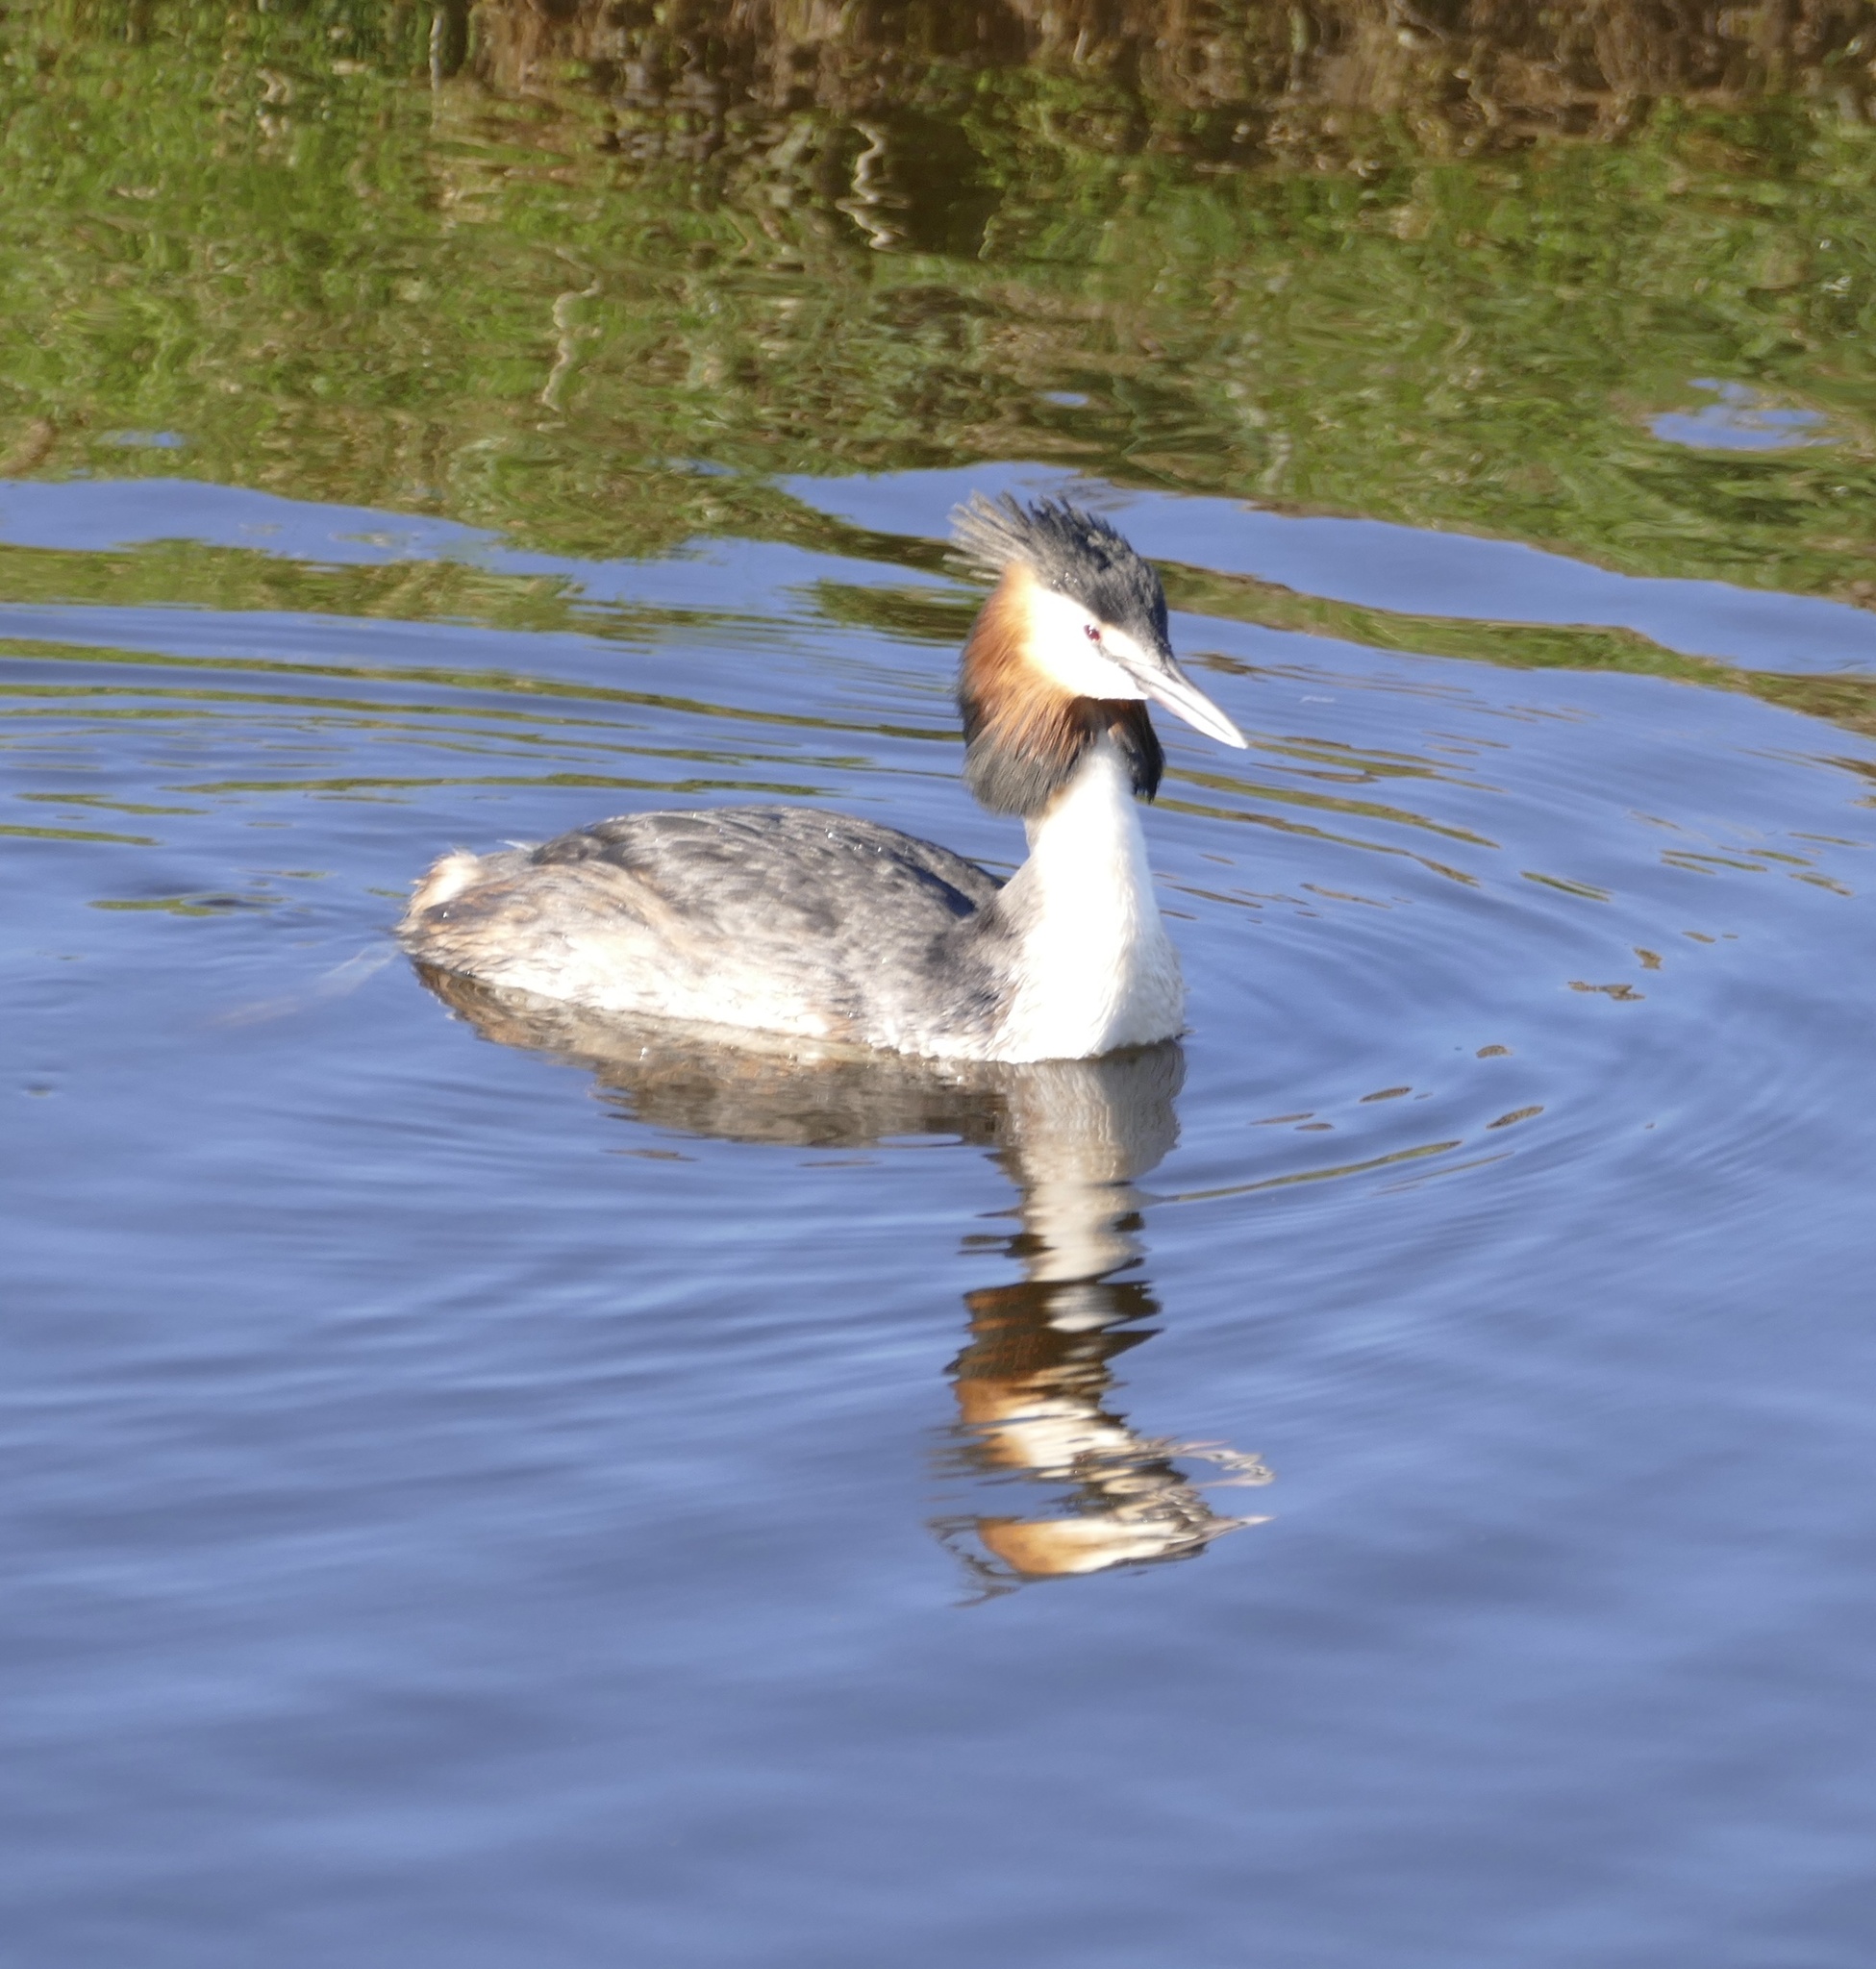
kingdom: Animalia
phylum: Chordata
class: Aves
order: Podicipediformes
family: Podicipedidae
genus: Podiceps
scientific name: Podiceps cristatus
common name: Great crested grebe
